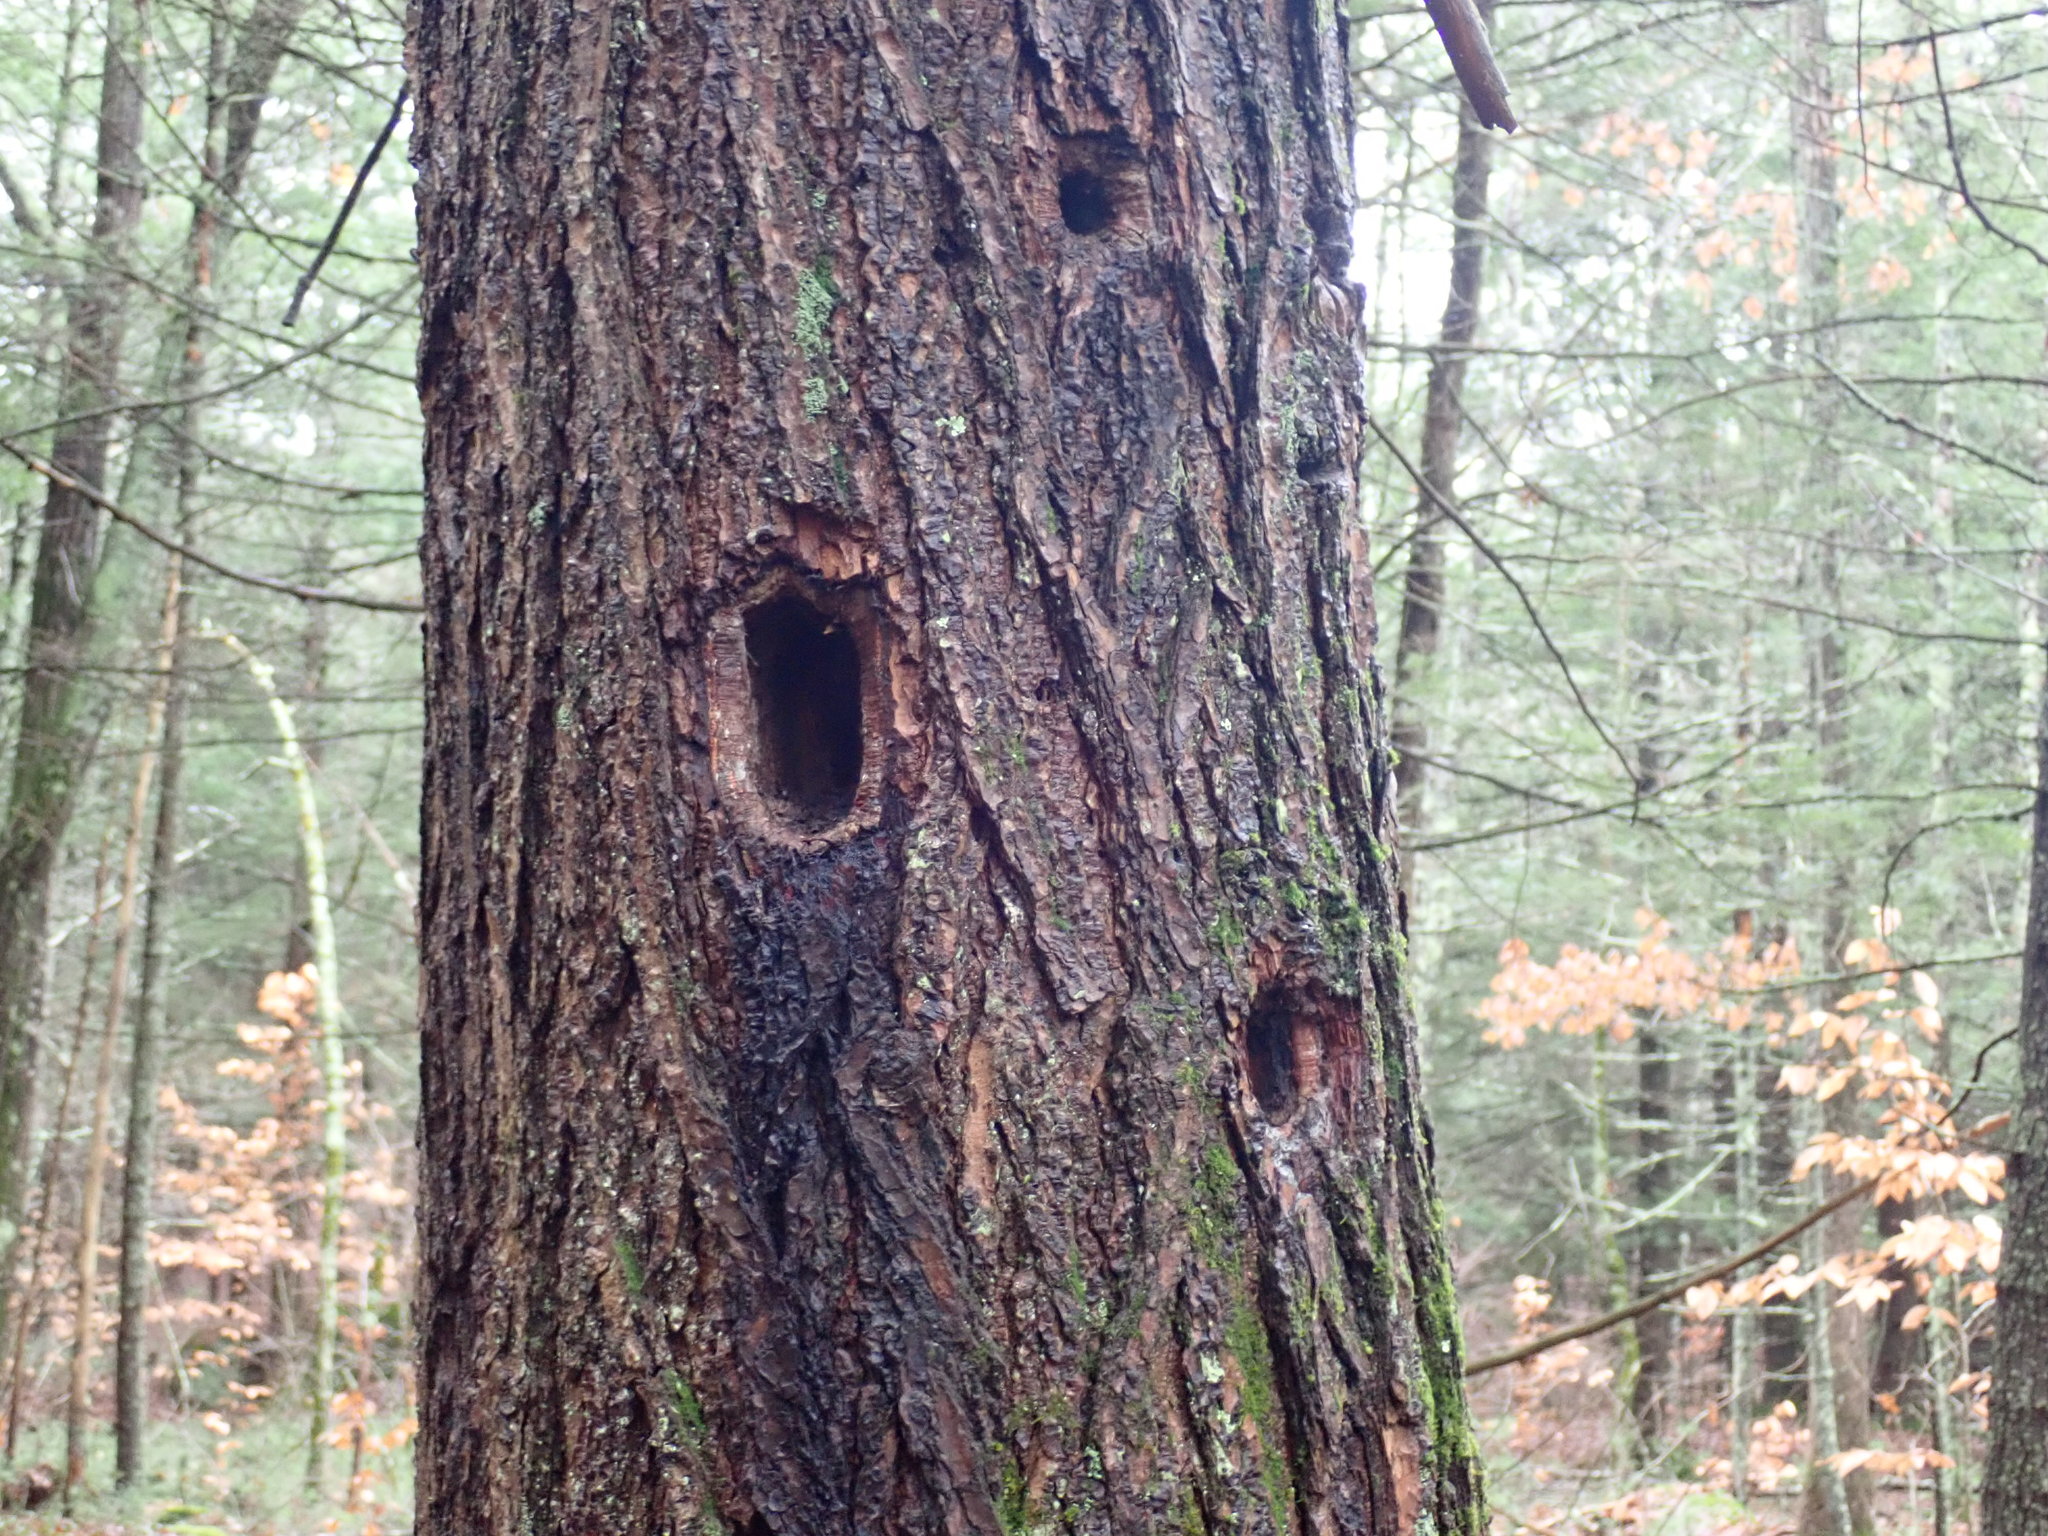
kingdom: Animalia
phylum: Chordata
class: Aves
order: Piciformes
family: Picidae
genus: Dryocopus
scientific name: Dryocopus pileatus
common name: Pileated woodpecker
